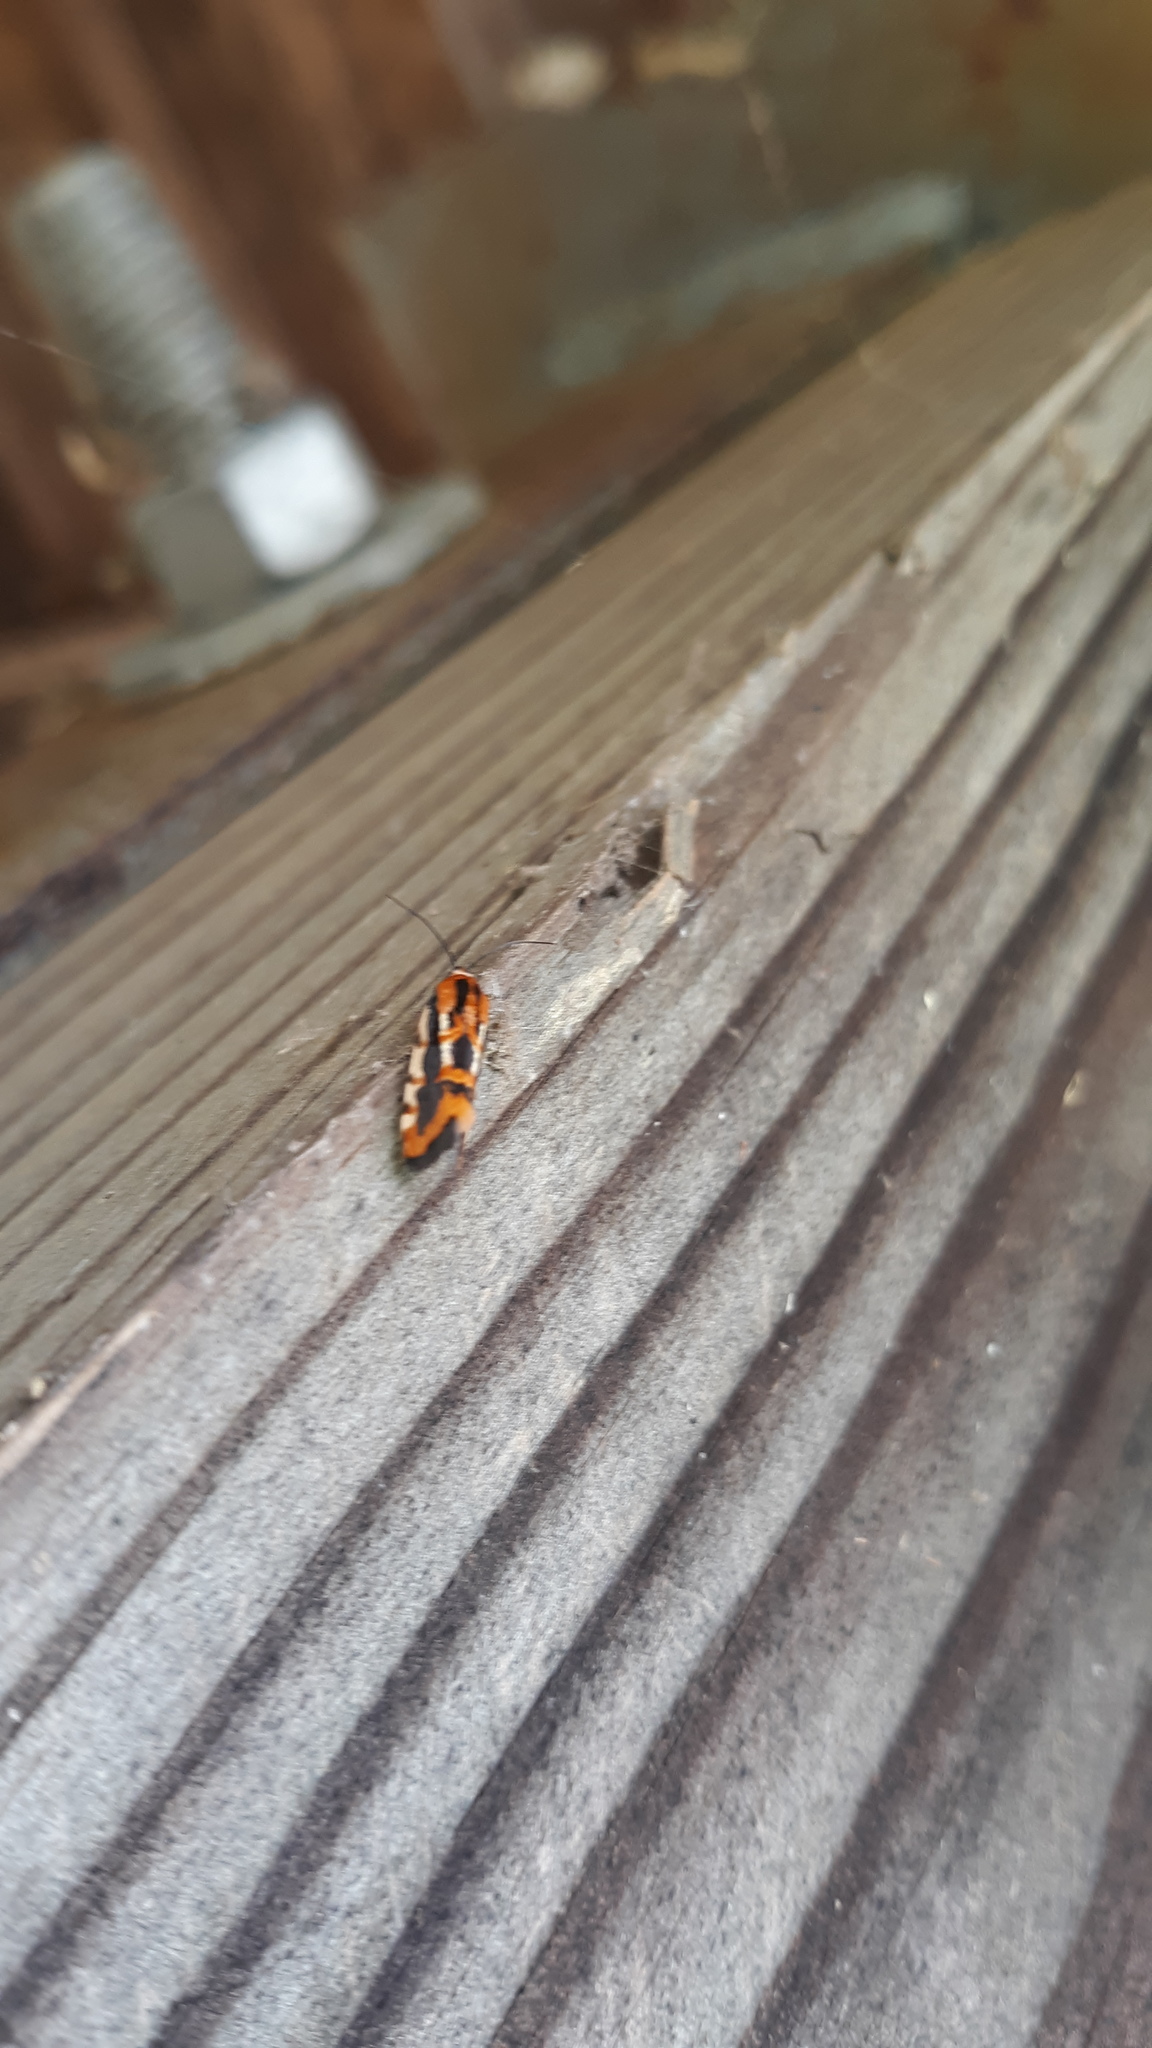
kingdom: Animalia
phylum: Arthropoda
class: Insecta
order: Lepidoptera
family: Noctuidae
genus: Acontia
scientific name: Acontia leo
